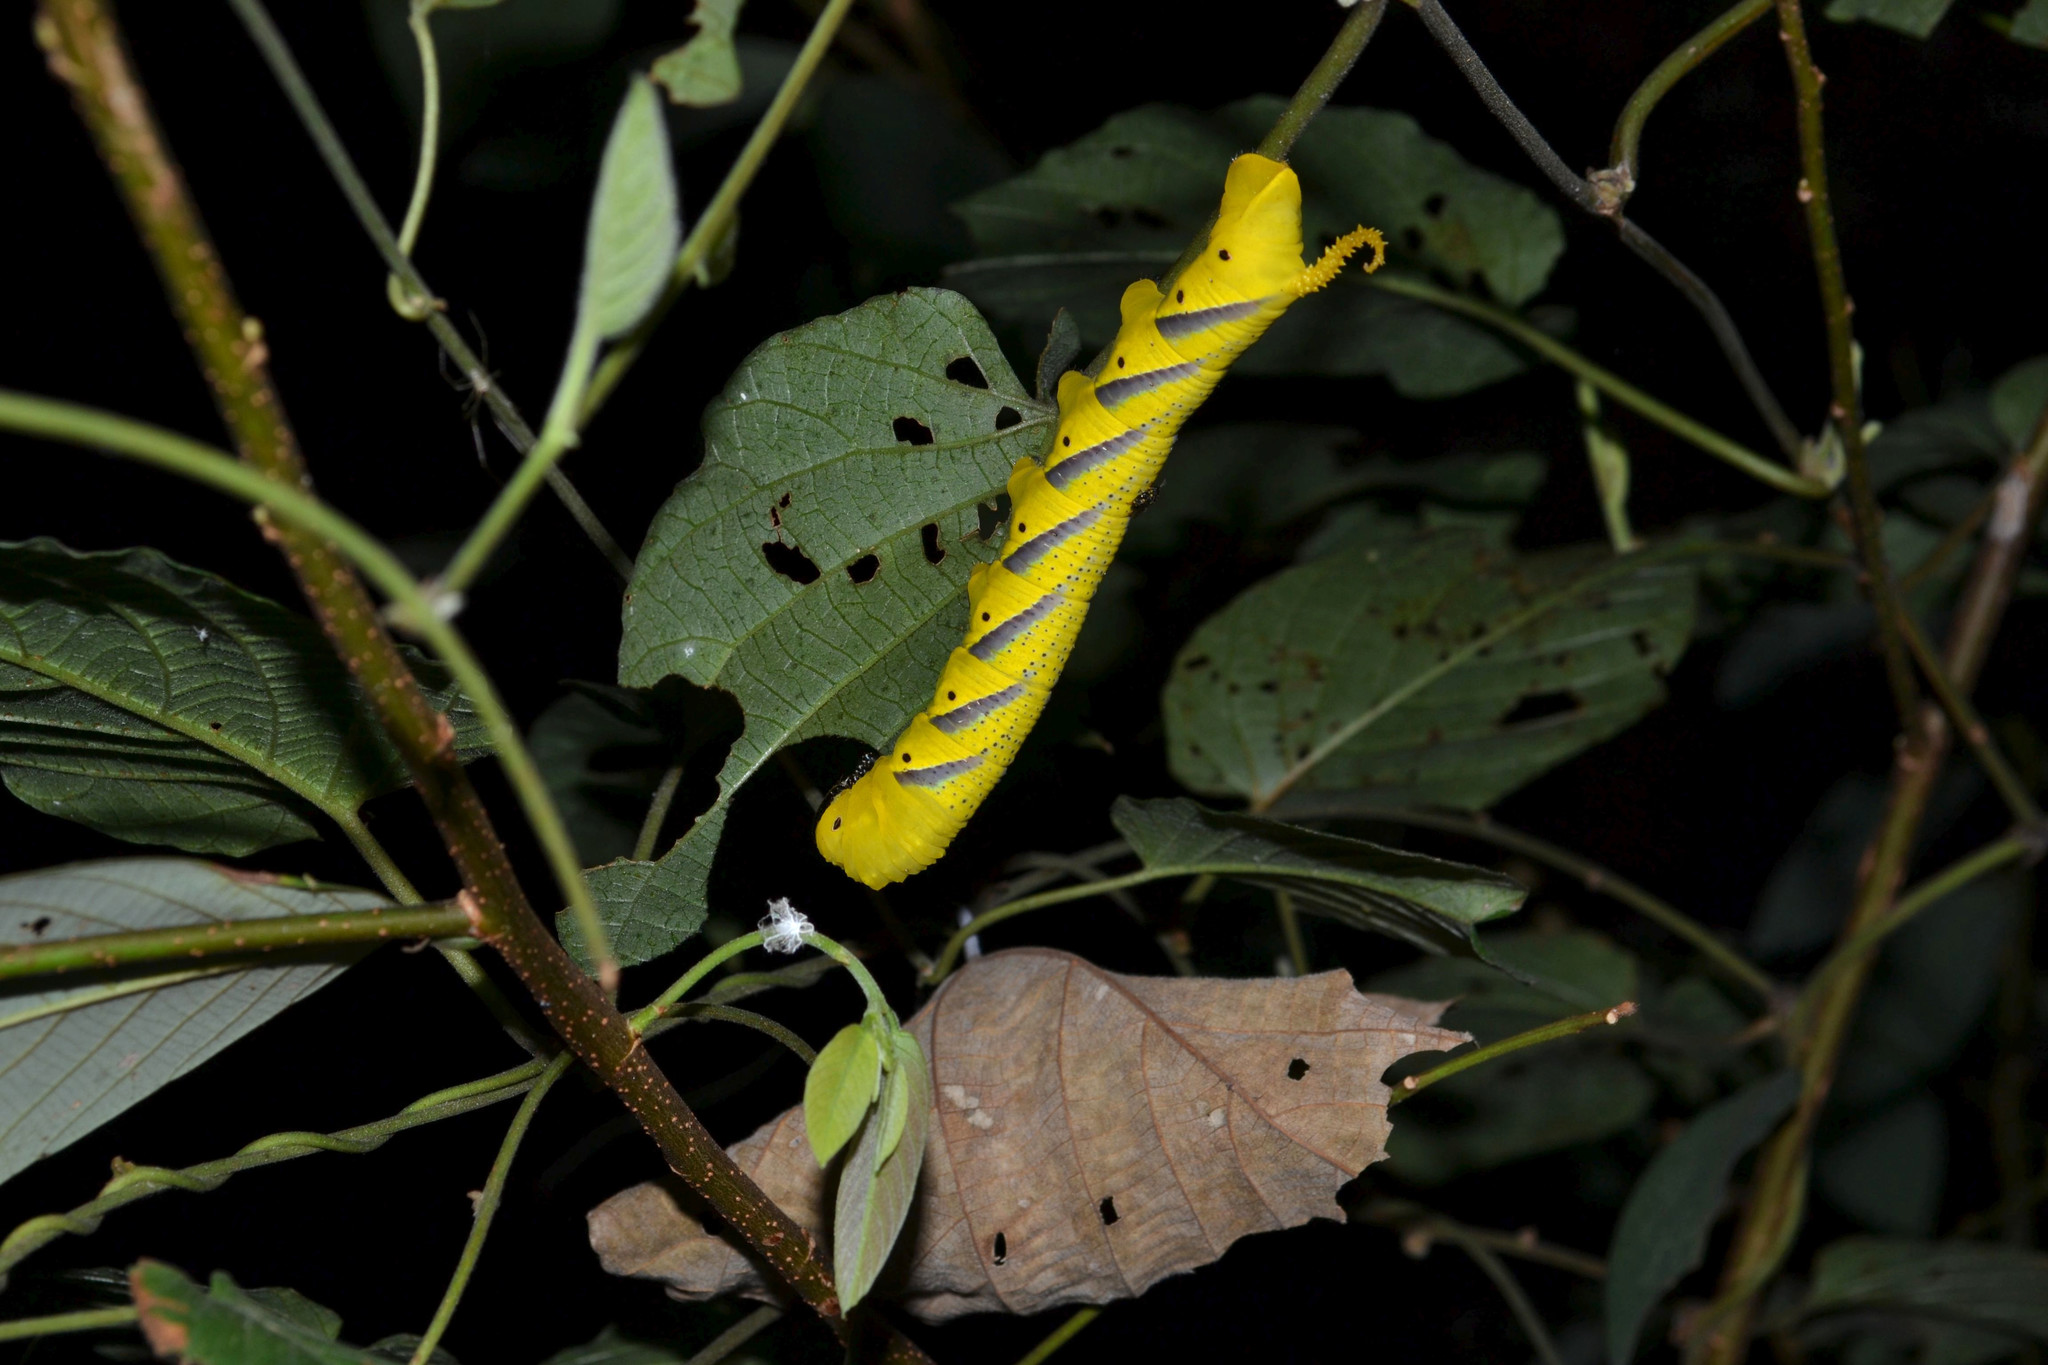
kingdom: Animalia
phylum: Arthropoda
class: Insecta
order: Lepidoptera
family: Sphingidae
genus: Acherontia
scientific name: Acherontia lachesis
